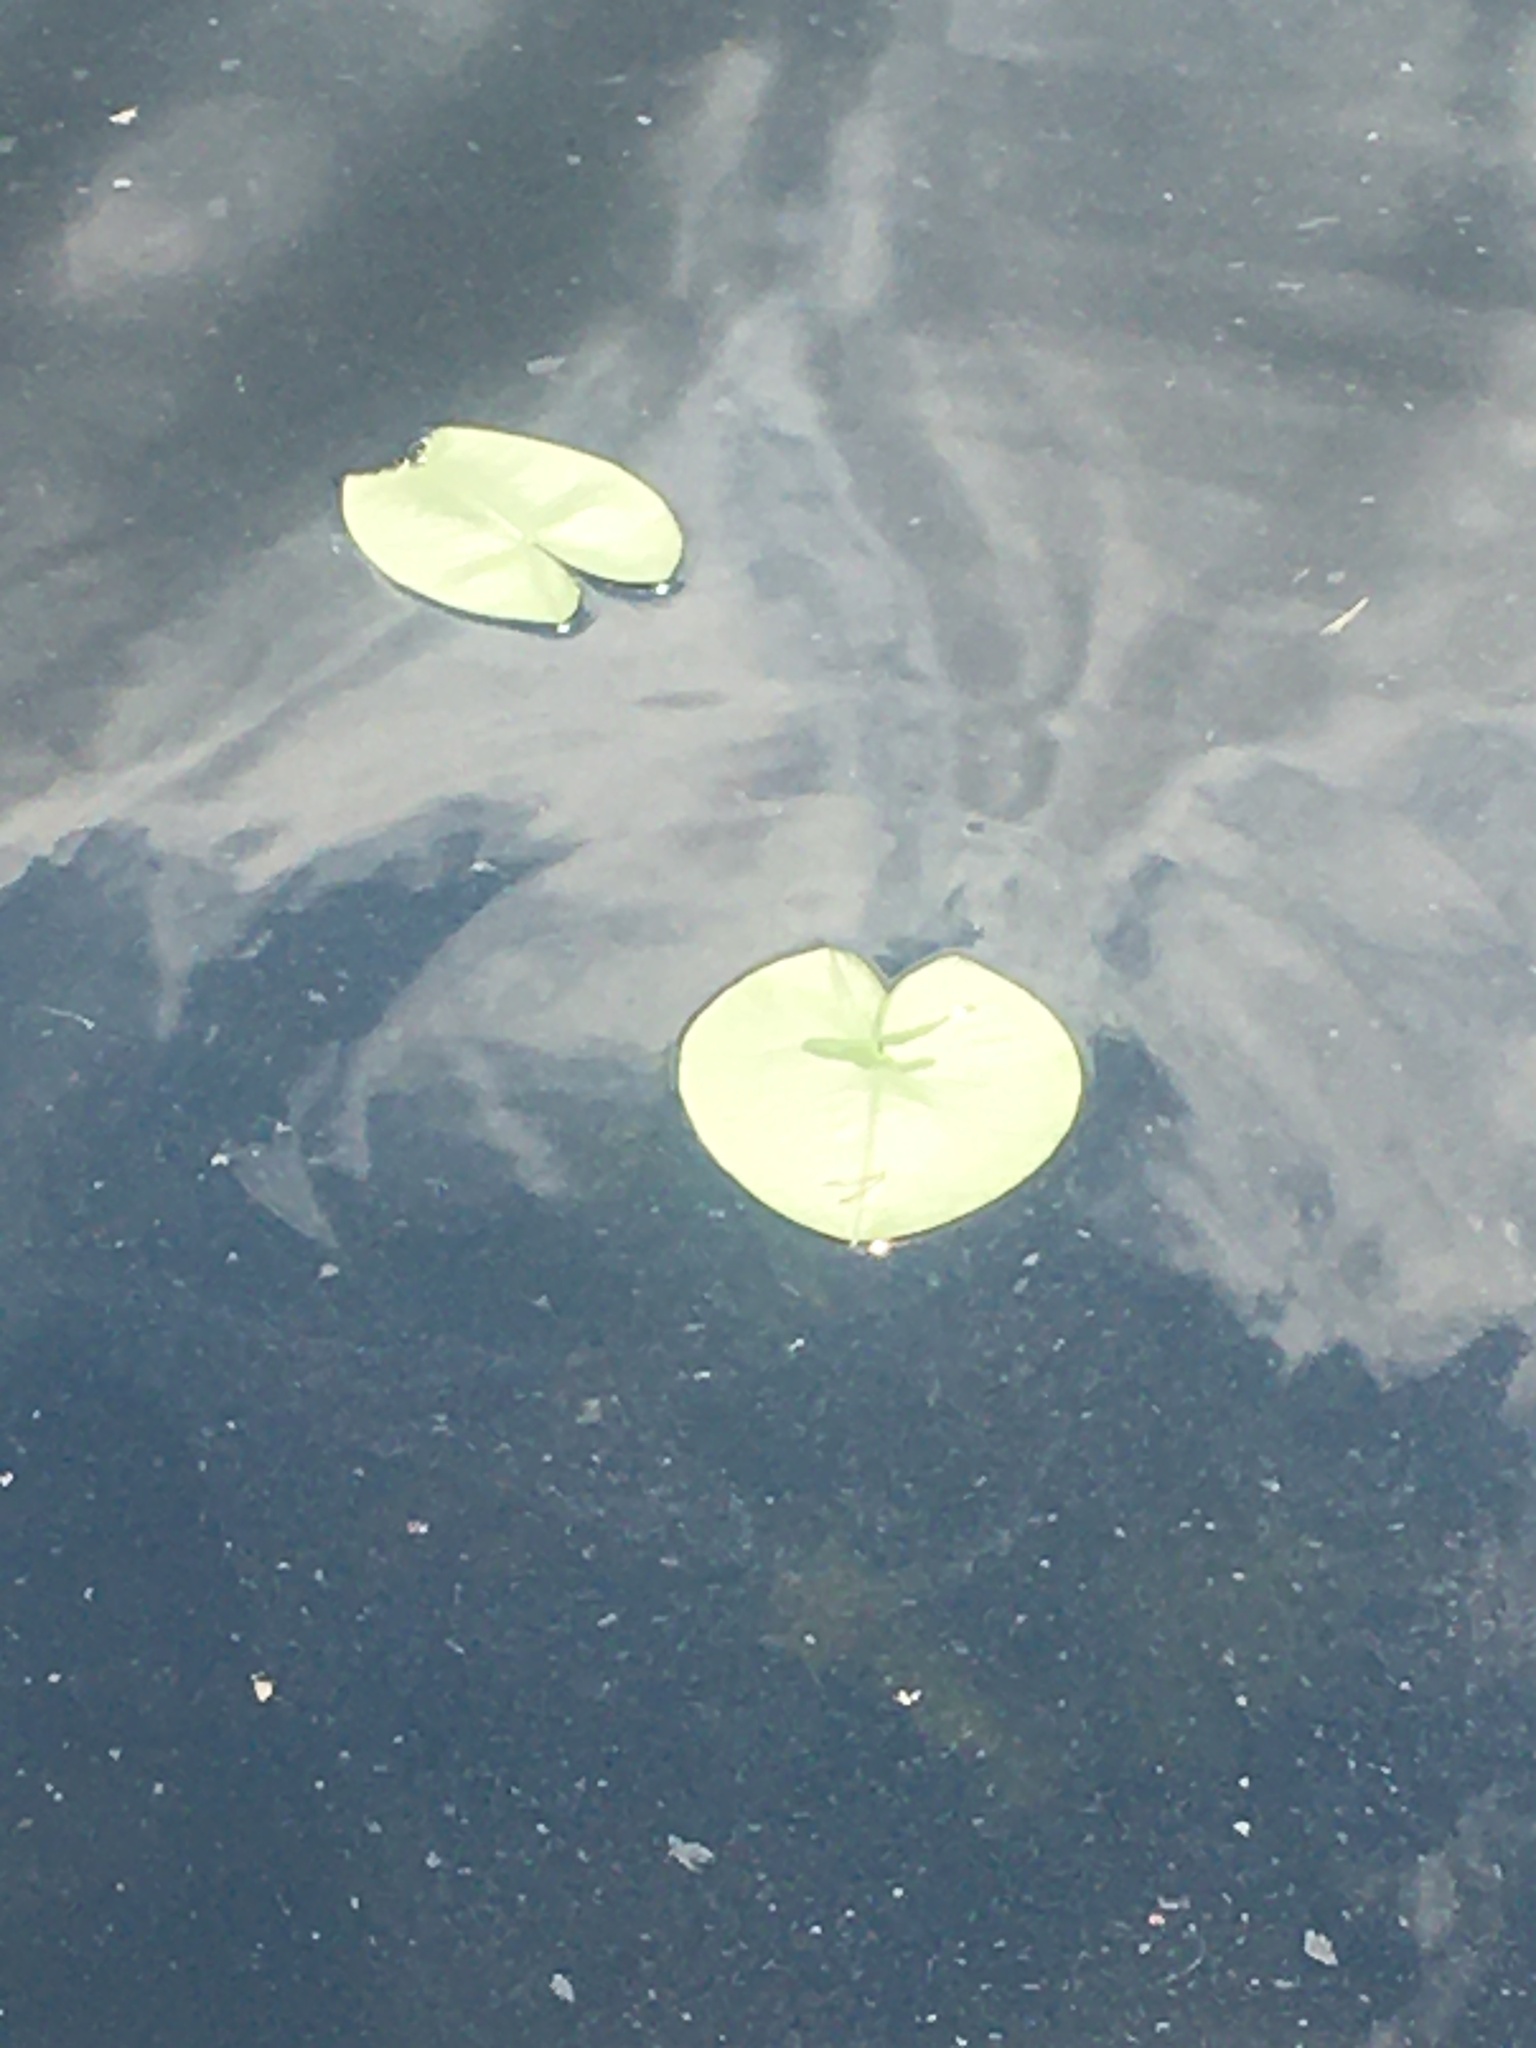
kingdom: Plantae
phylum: Tracheophyta
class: Magnoliopsida
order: Nymphaeales
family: Nymphaeaceae
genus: Nuphar
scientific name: Nuphar lutea
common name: Yellow water-lily
